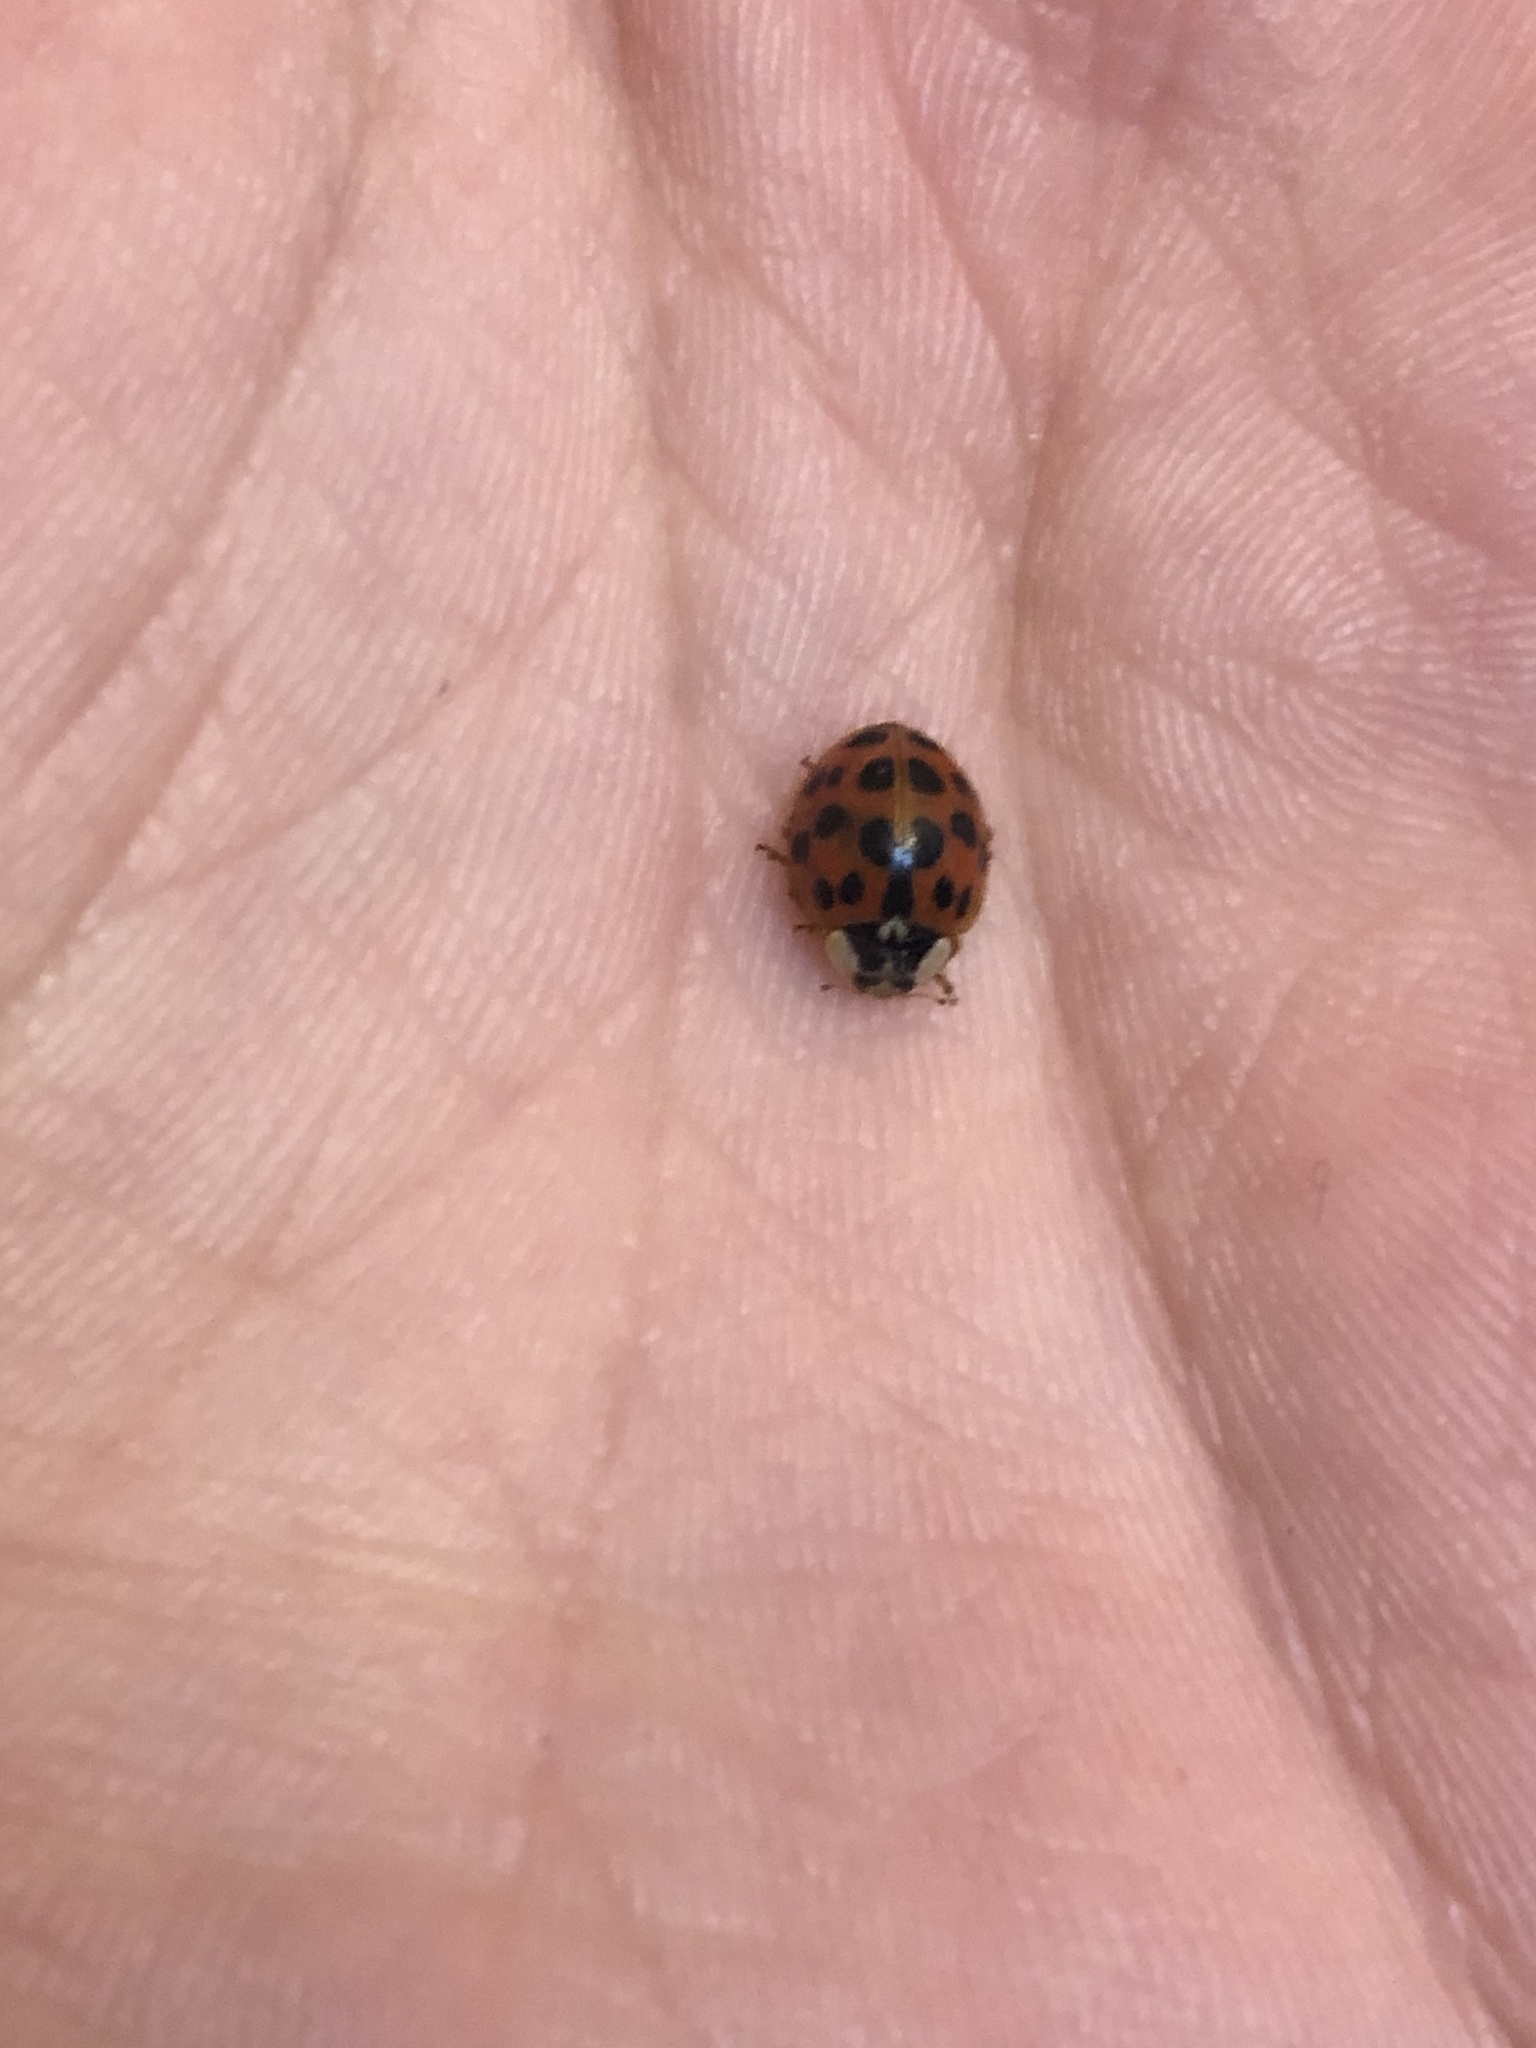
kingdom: Animalia
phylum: Arthropoda
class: Insecta
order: Coleoptera
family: Coccinellidae
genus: Harmonia
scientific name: Harmonia axyridis
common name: Harlequin ladybird
